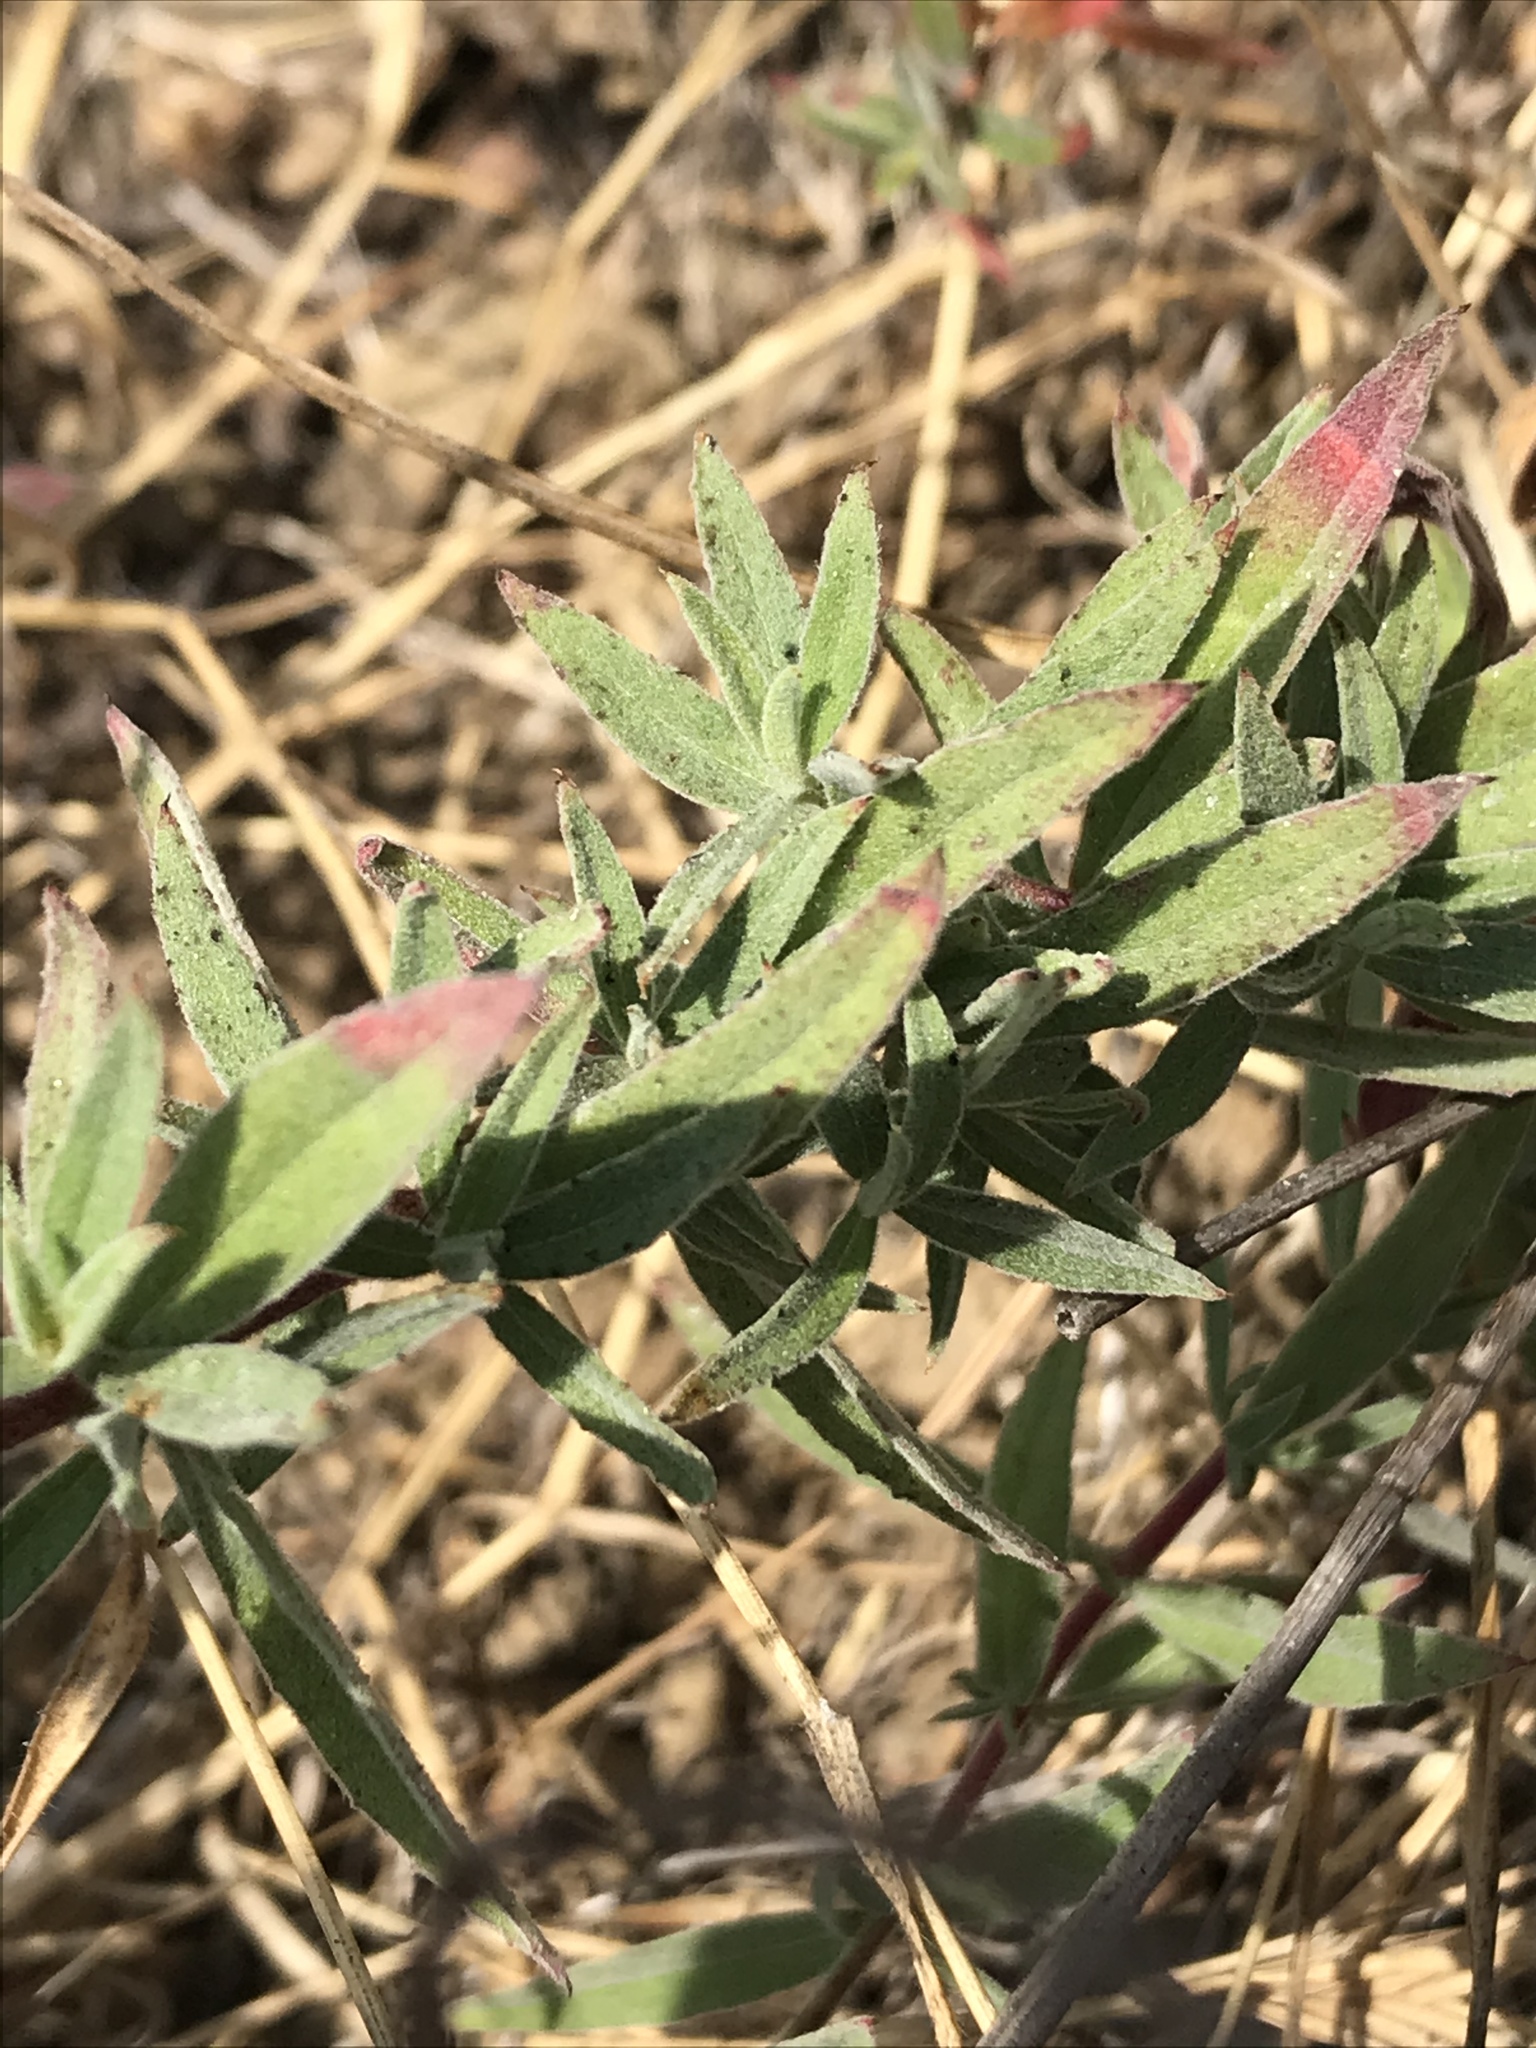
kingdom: Plantae
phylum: Tracheophyta
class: Magnoliopsida
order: Myrtales
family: Onagraceae
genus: Epilobium
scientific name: Epilobium canum
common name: California-fuchsia
